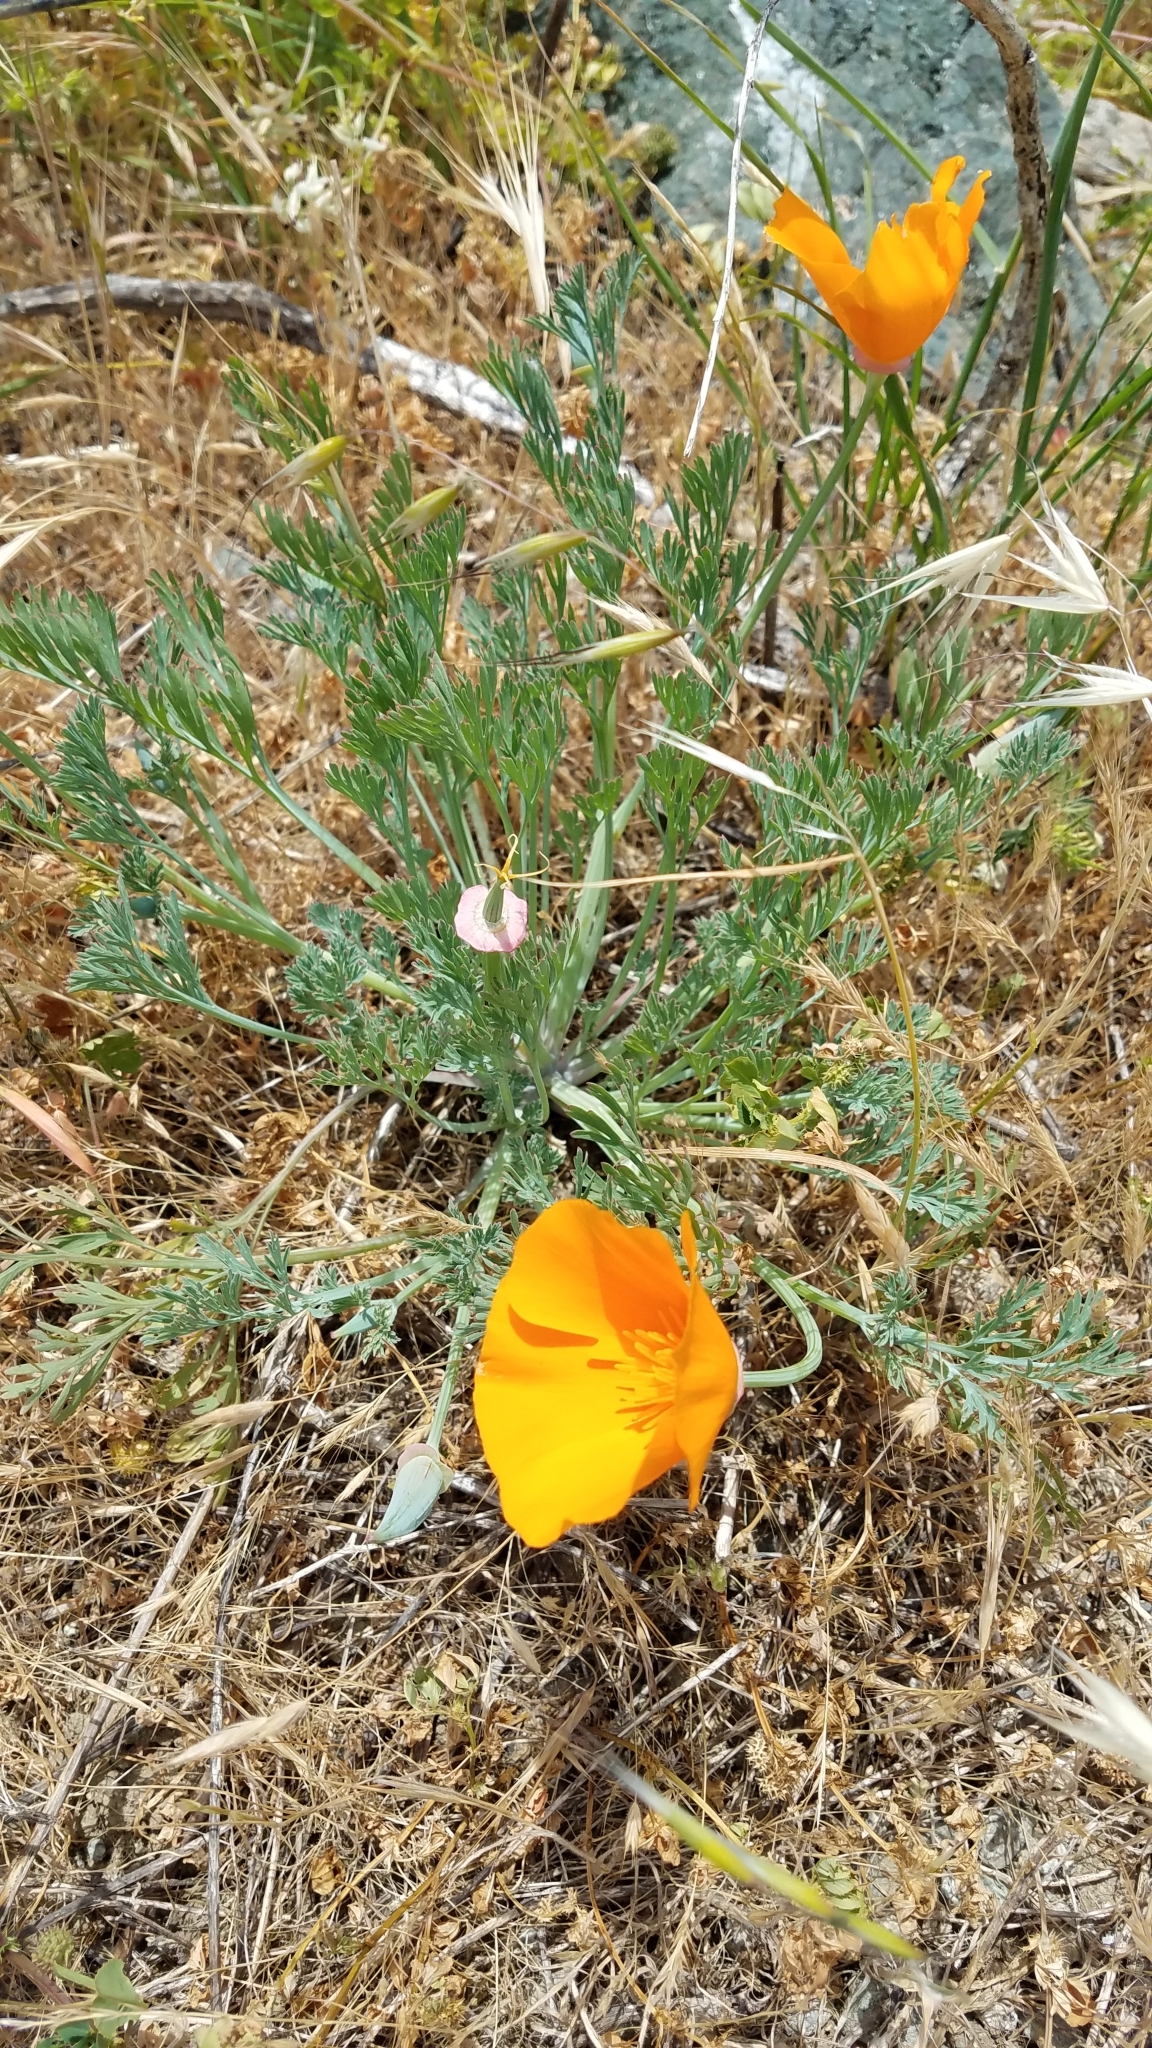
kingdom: Plantae
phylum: Tracheophyta
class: Magnoliopsida
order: Ranunculales
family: Papaveraceae
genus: Eschscholzia
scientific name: Eschscholzia californica
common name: California poppy
